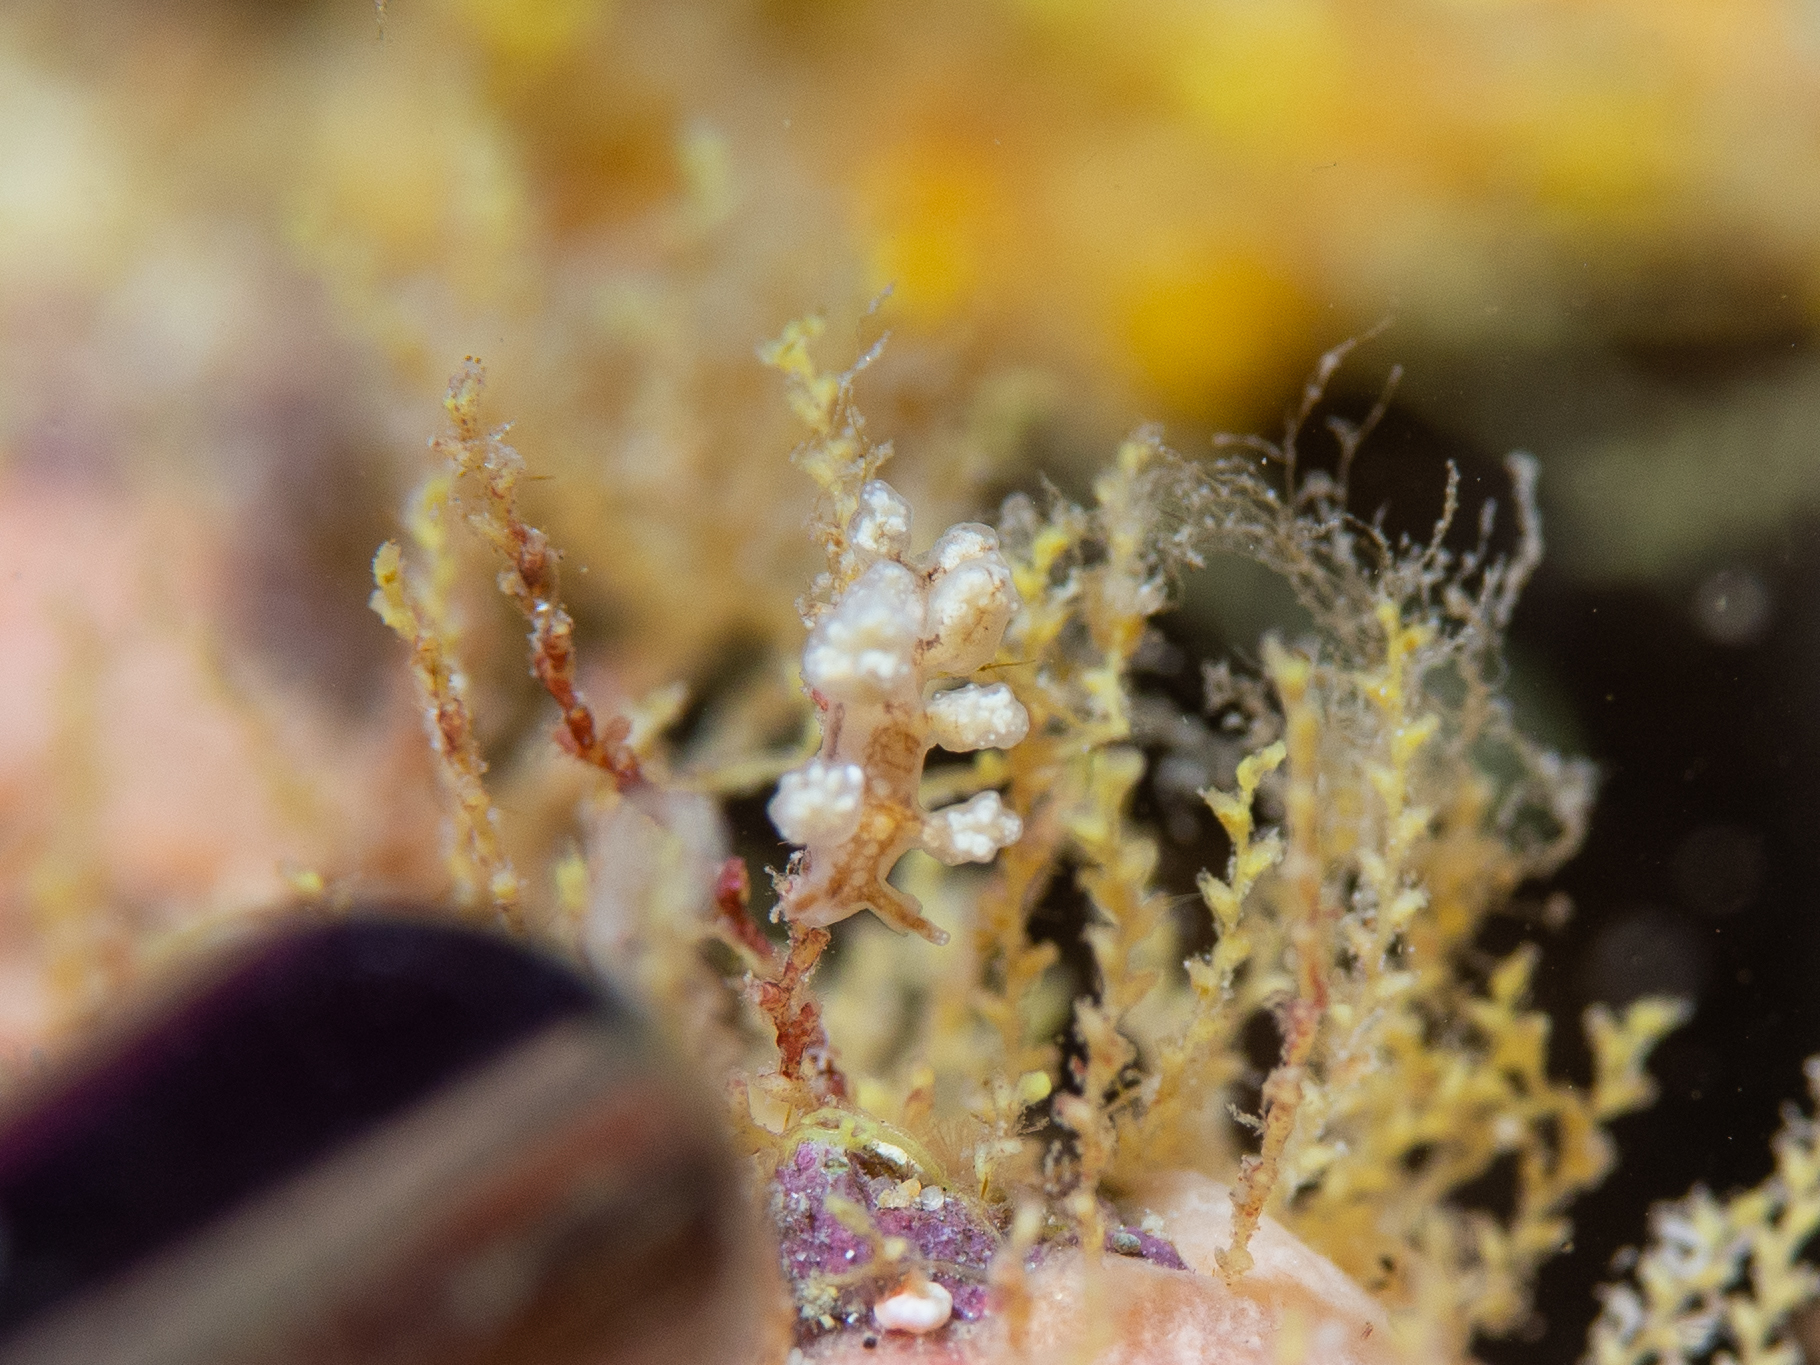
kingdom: Animalia
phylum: Mollusca
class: Gastropoda
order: Nudibranchia
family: Dotidae
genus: Doto
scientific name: Doto pita
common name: Pita doto
